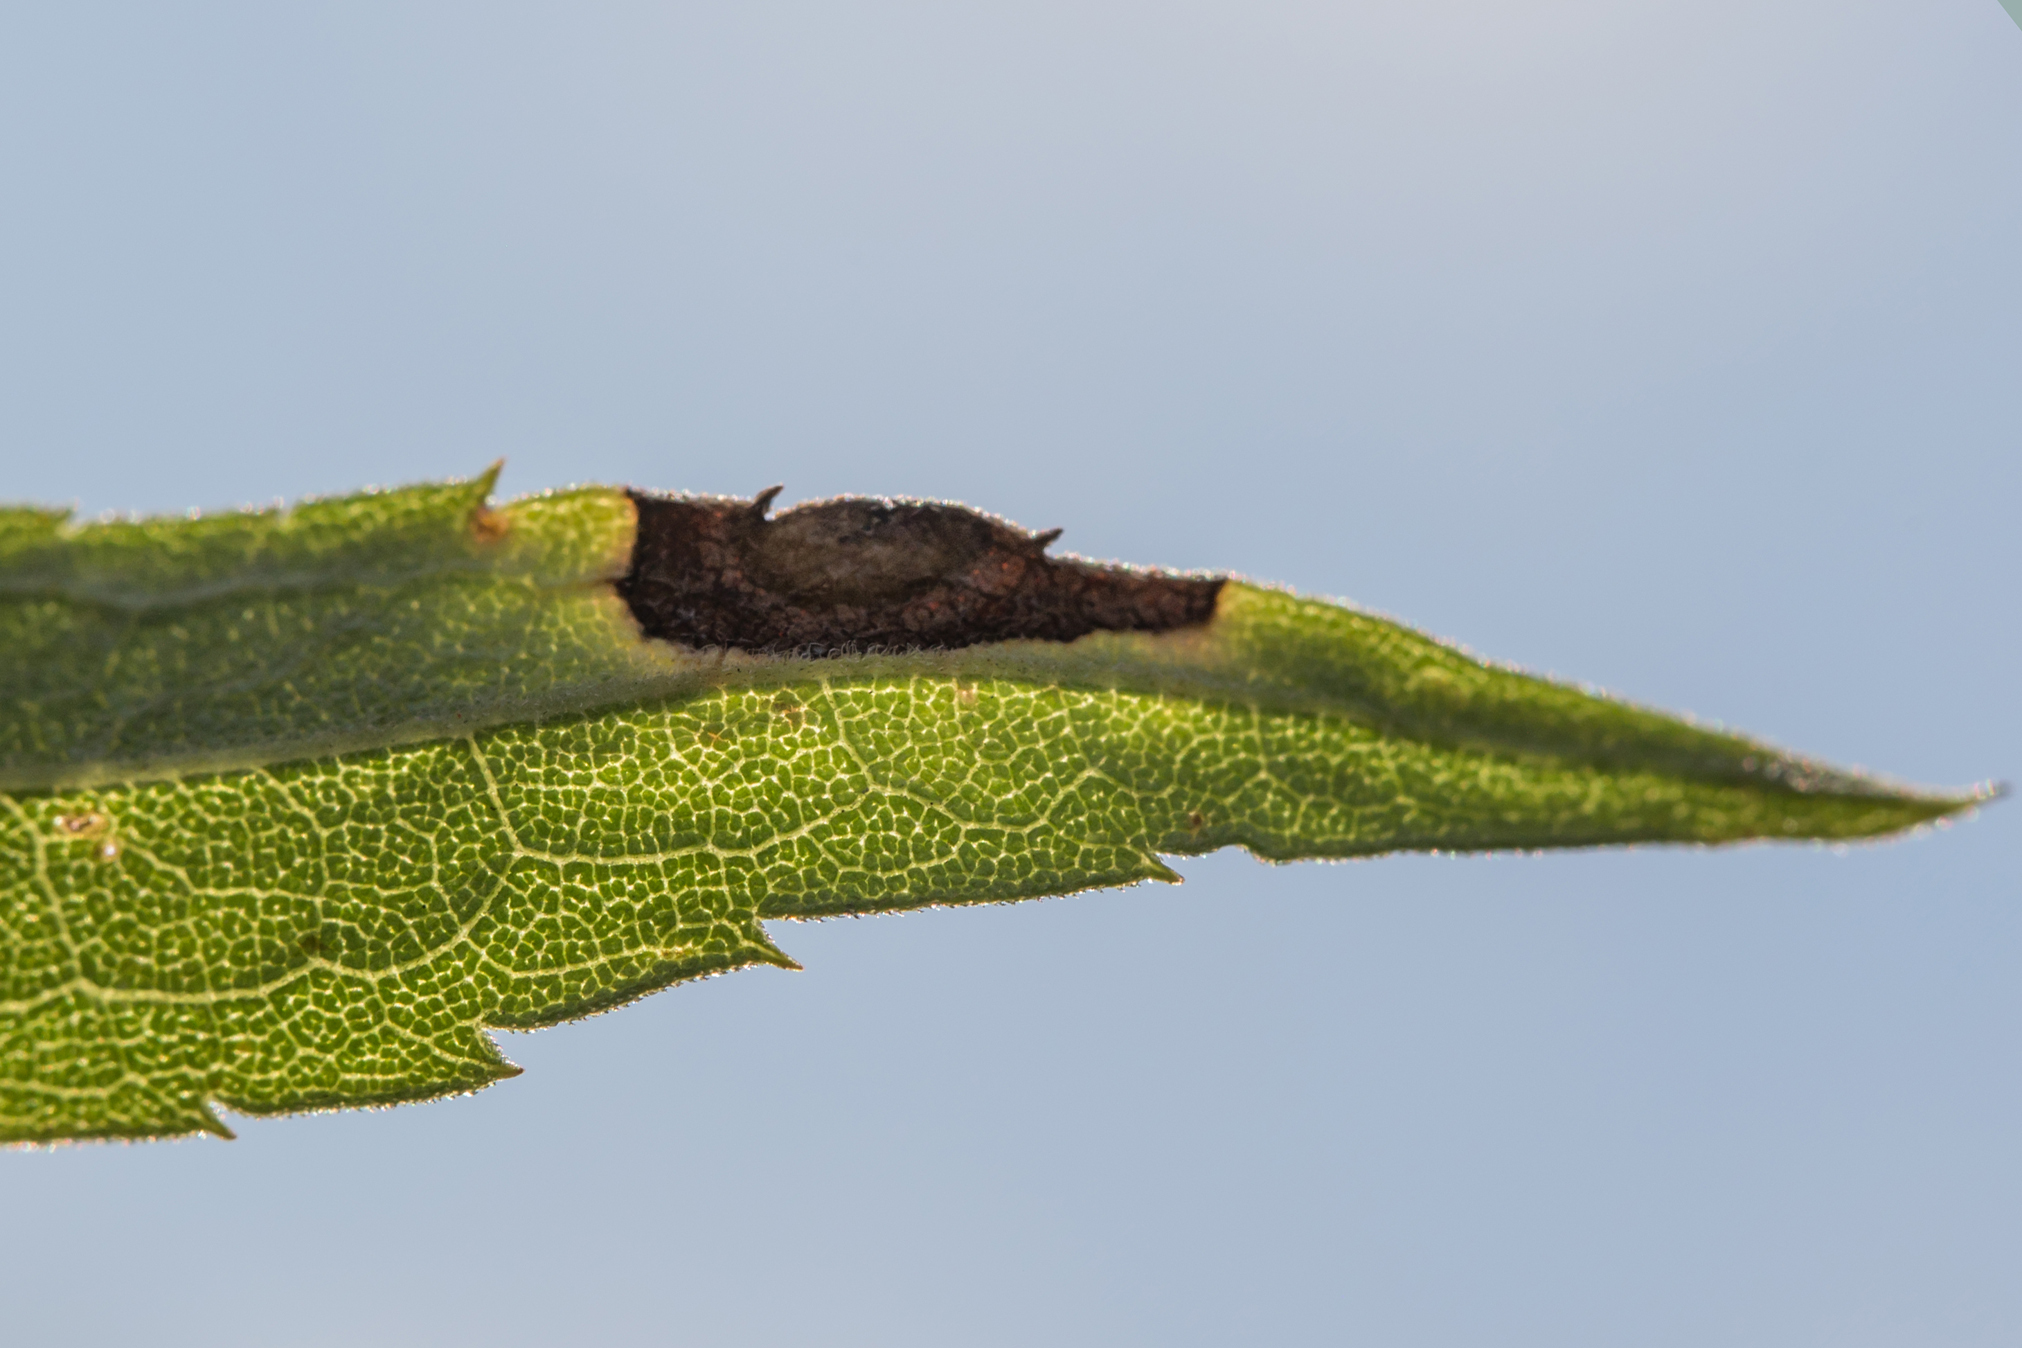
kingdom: Animalia
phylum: Arthropoda
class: Insecta
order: Diptera
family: Cecidomyiidae
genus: Asteromyia
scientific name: Asteromyia carbonifera
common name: Carbonifera goldenrod gall midge
